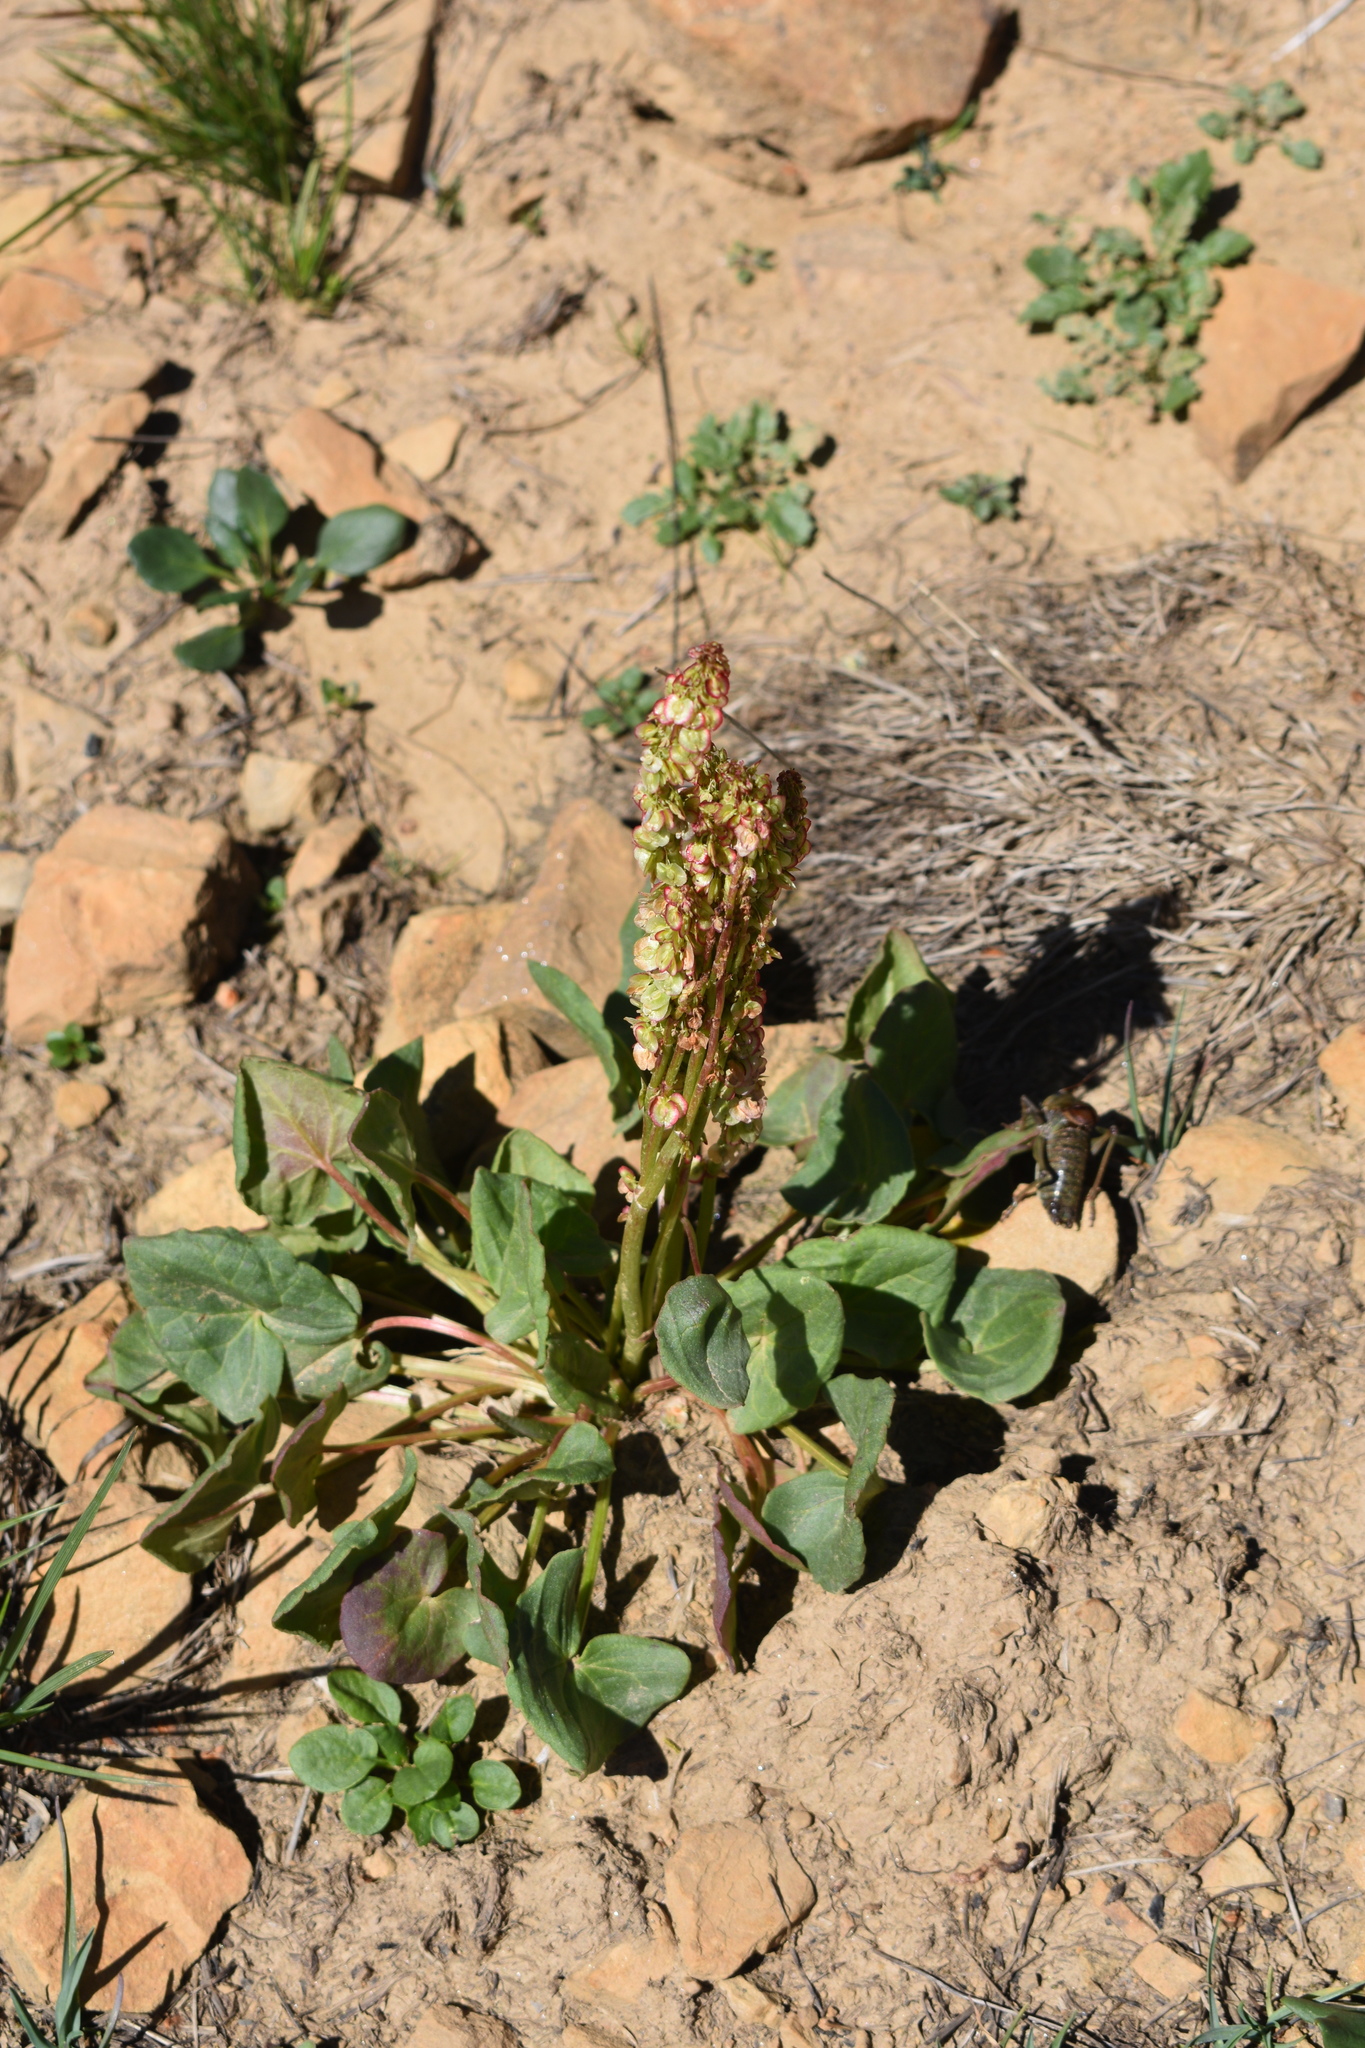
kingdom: Plantae
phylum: Tracheophyta
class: Magnoliopsida
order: Caryophyllales
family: Polygonaceae
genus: Oxyria
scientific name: Oxyria digyna
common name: Alpine mountain-sorrel
